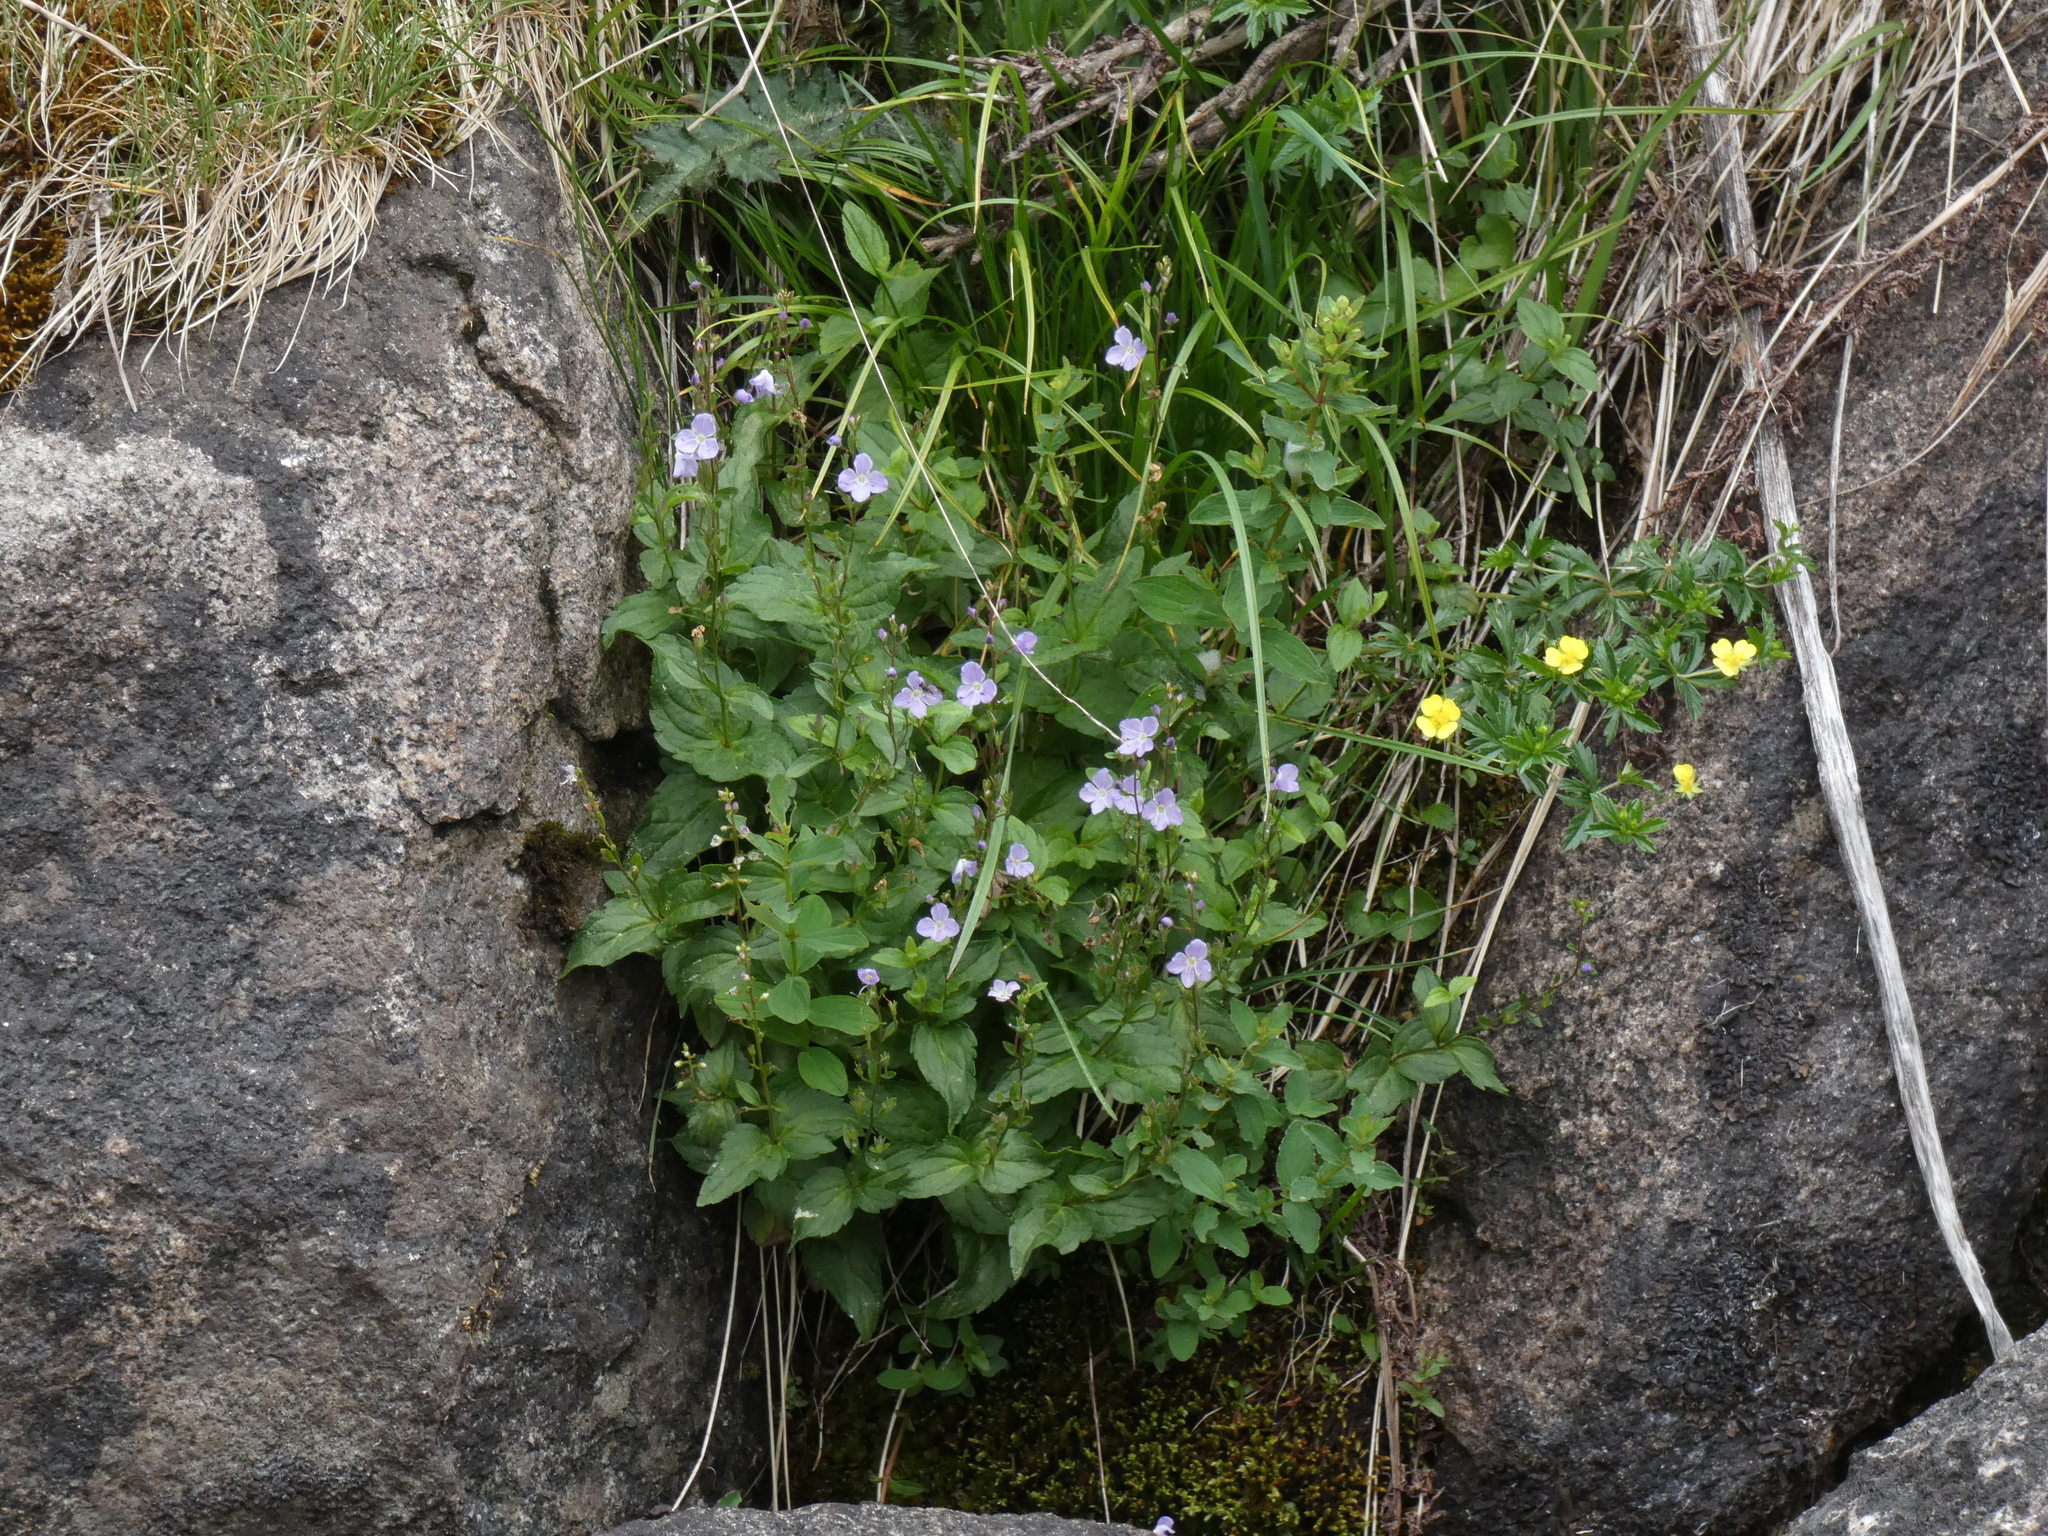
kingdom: Plantae
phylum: Tracheophyta
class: Magnoliopsida
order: Lamiales
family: Plantaginaceae
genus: Veronica
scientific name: Veronica ponae
